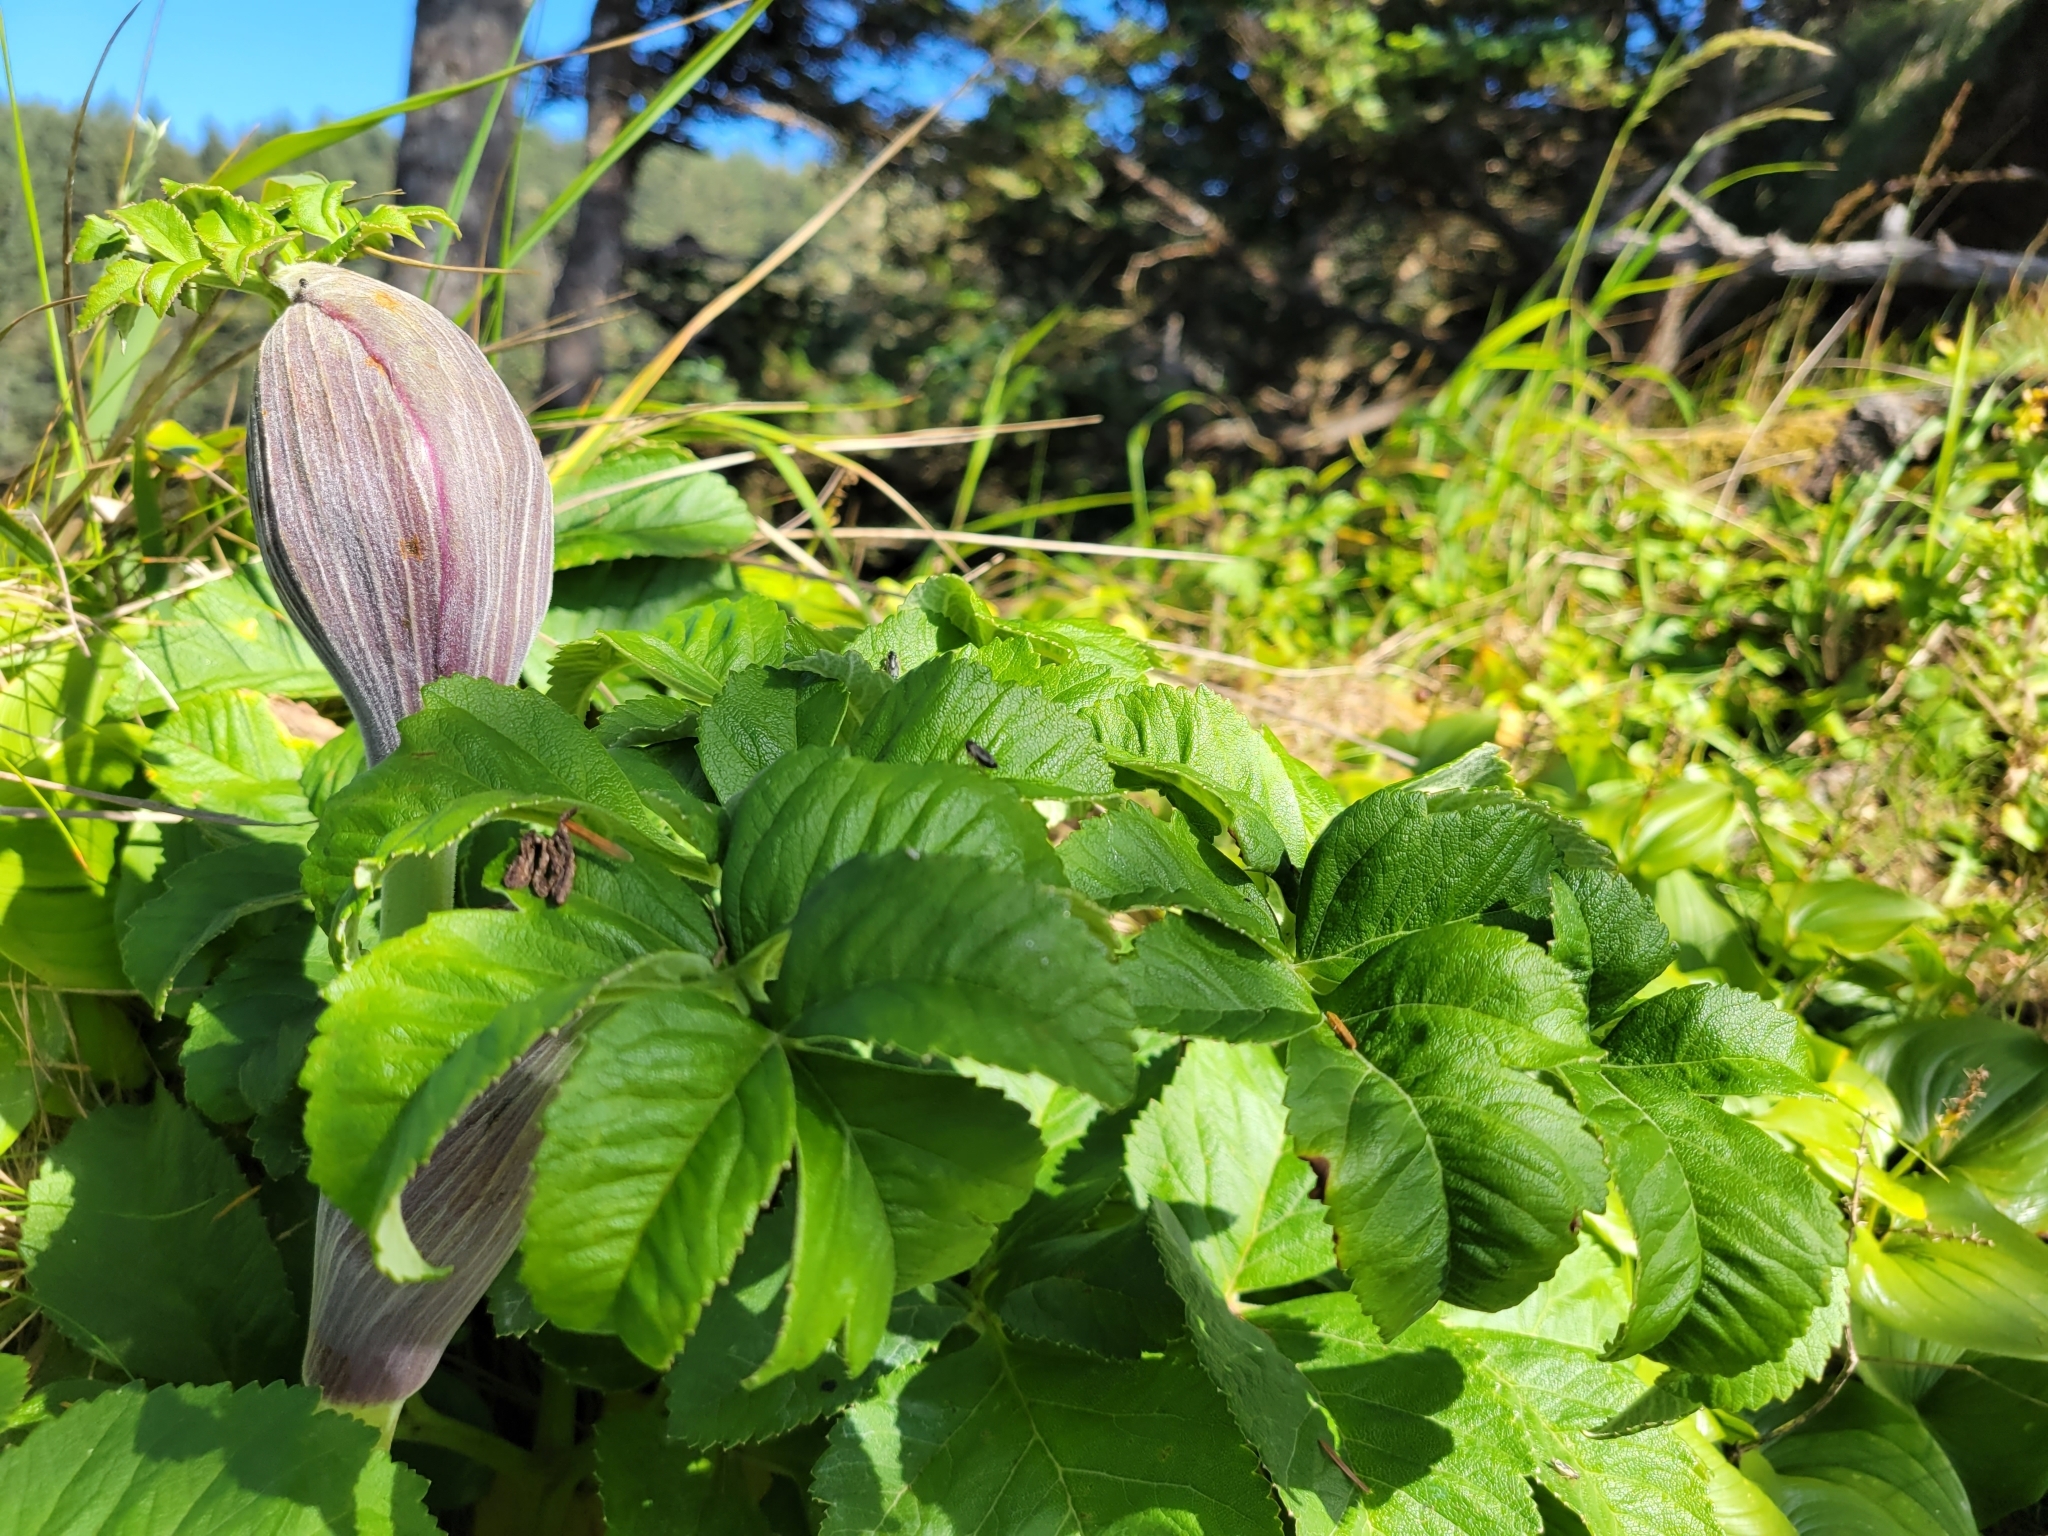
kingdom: Plantae
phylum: Tracheophyta
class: Magnoliopsida
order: Apiales
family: Apiaceae
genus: Angelica
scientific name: Angelica hendersonii
